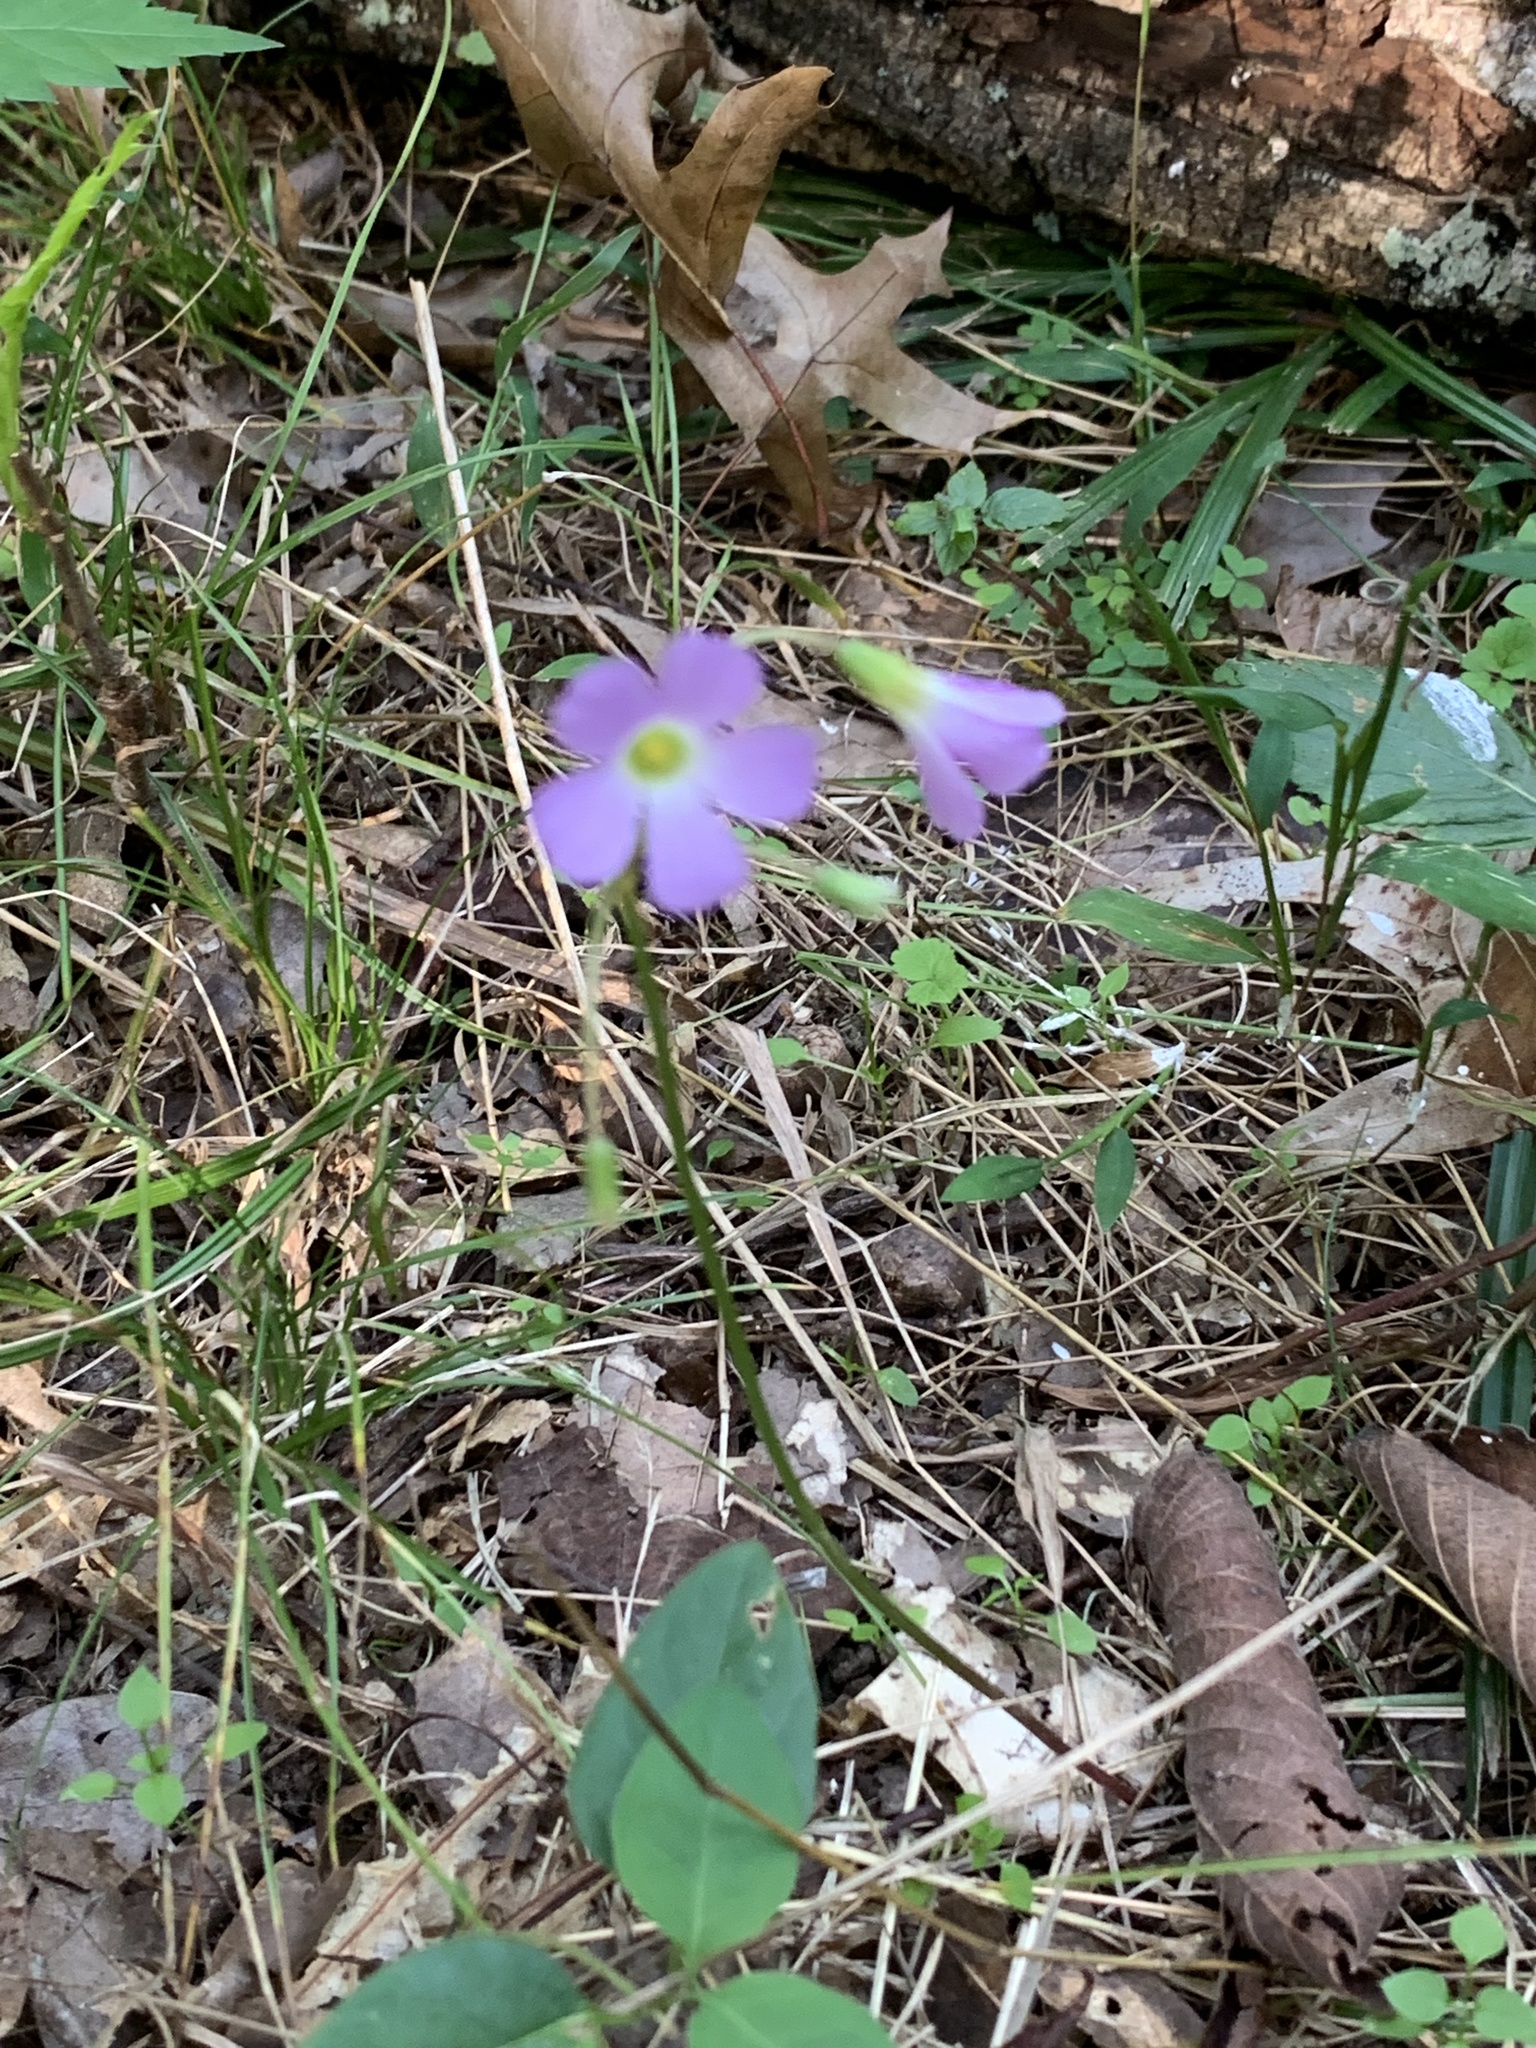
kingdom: Plantae
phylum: Tracheophyta
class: Magnoliopsida
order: Oxalidales
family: Oxalidaceae
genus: Oxalis
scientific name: Oxalis violacea
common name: Violet wood-sorrel
